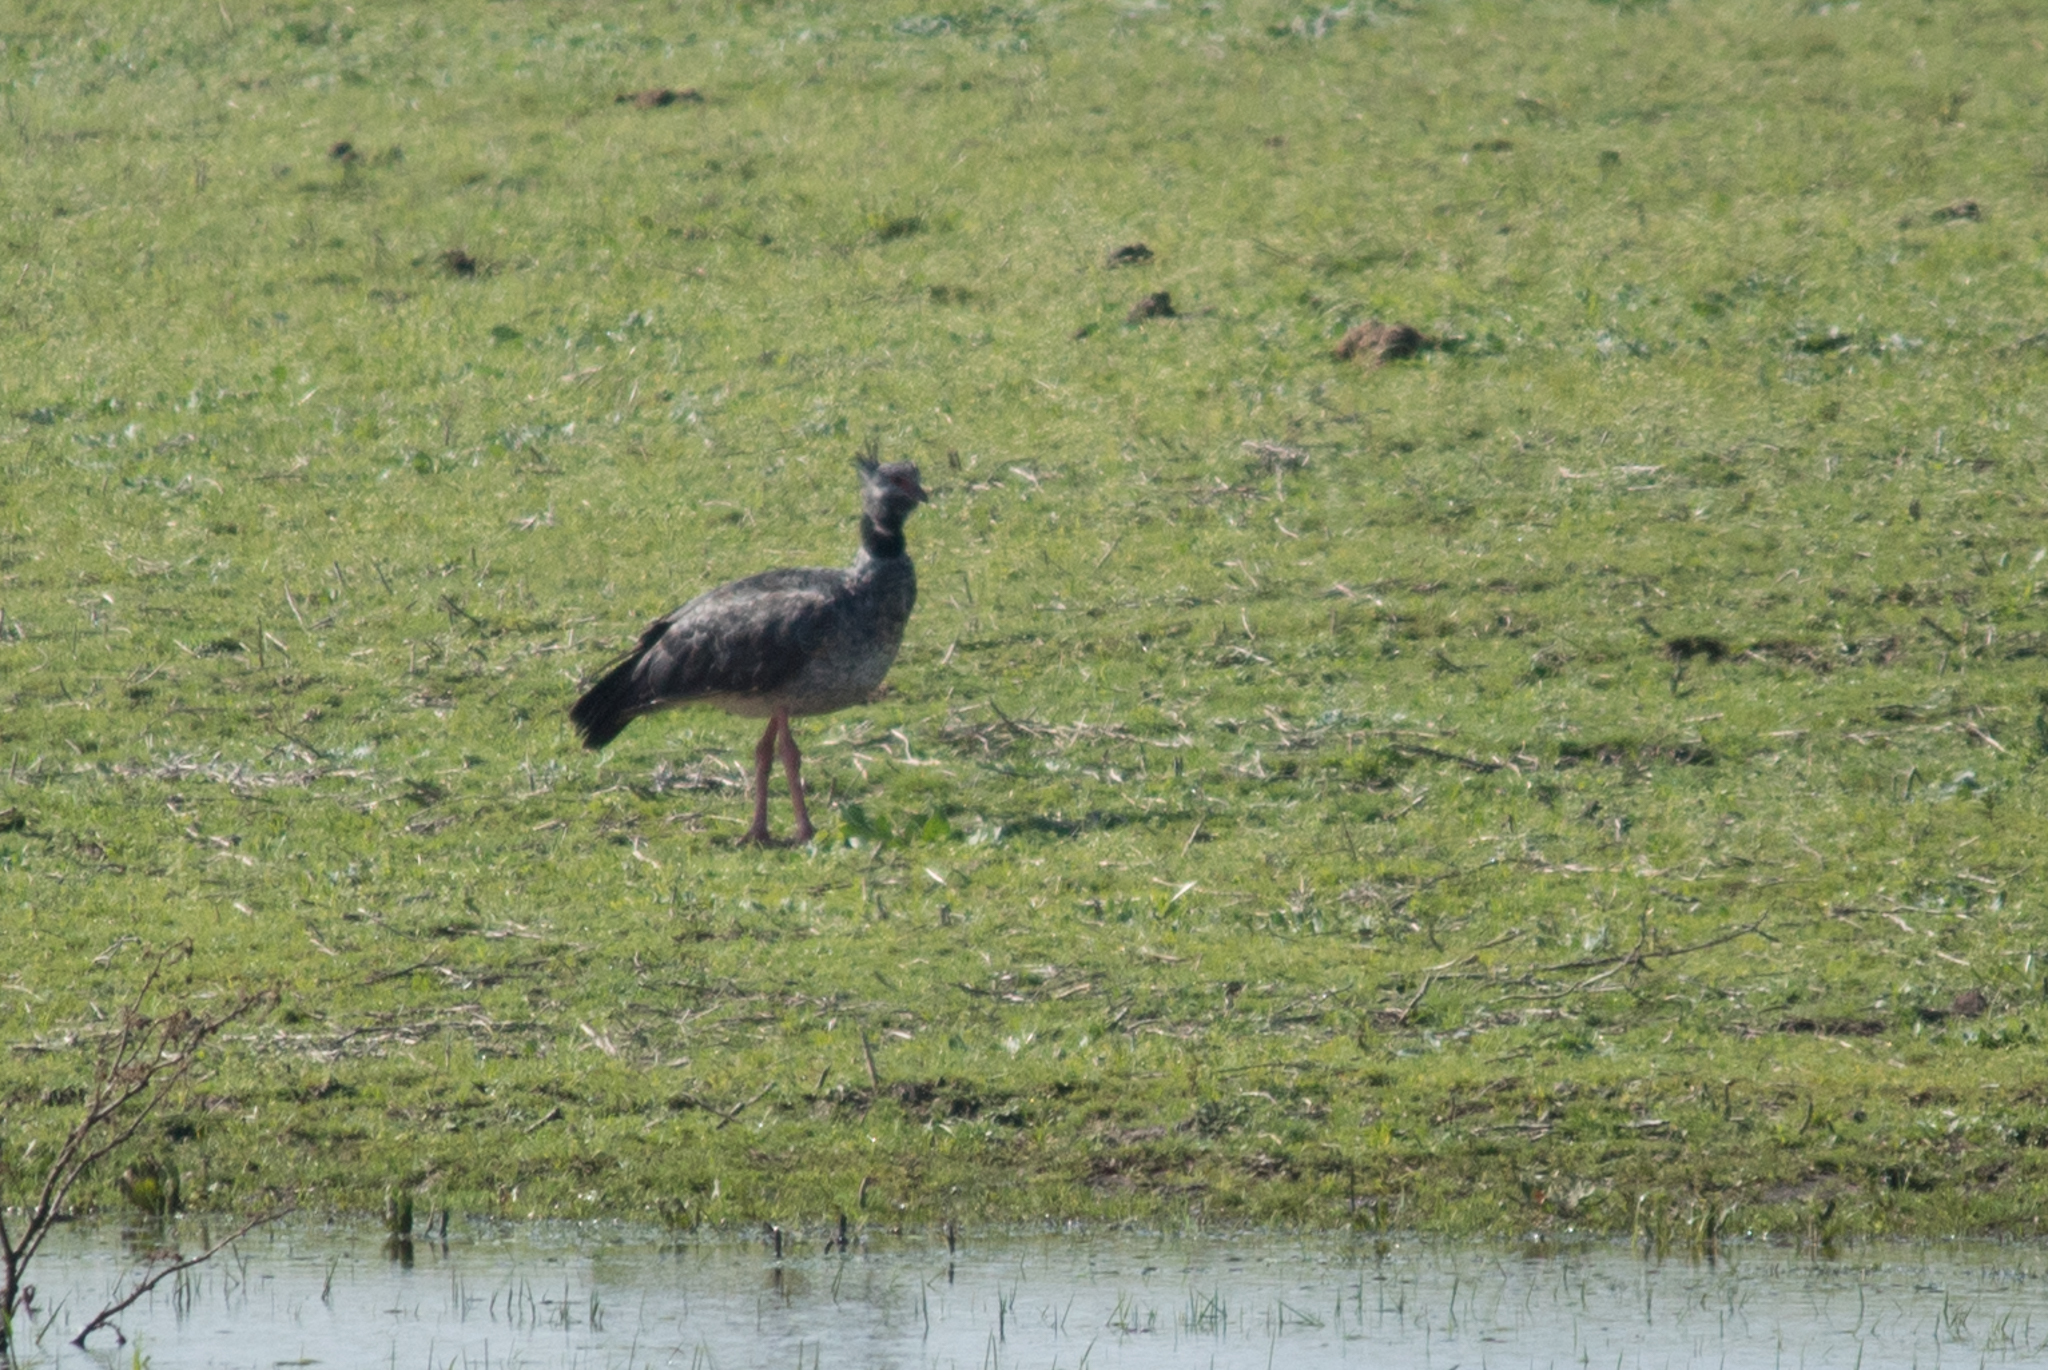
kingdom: Animalia
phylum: Chordata
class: Aves
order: Anseriformes
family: Anhimidae
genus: Chauna
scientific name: Chauna torquata
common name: Southern screamer
